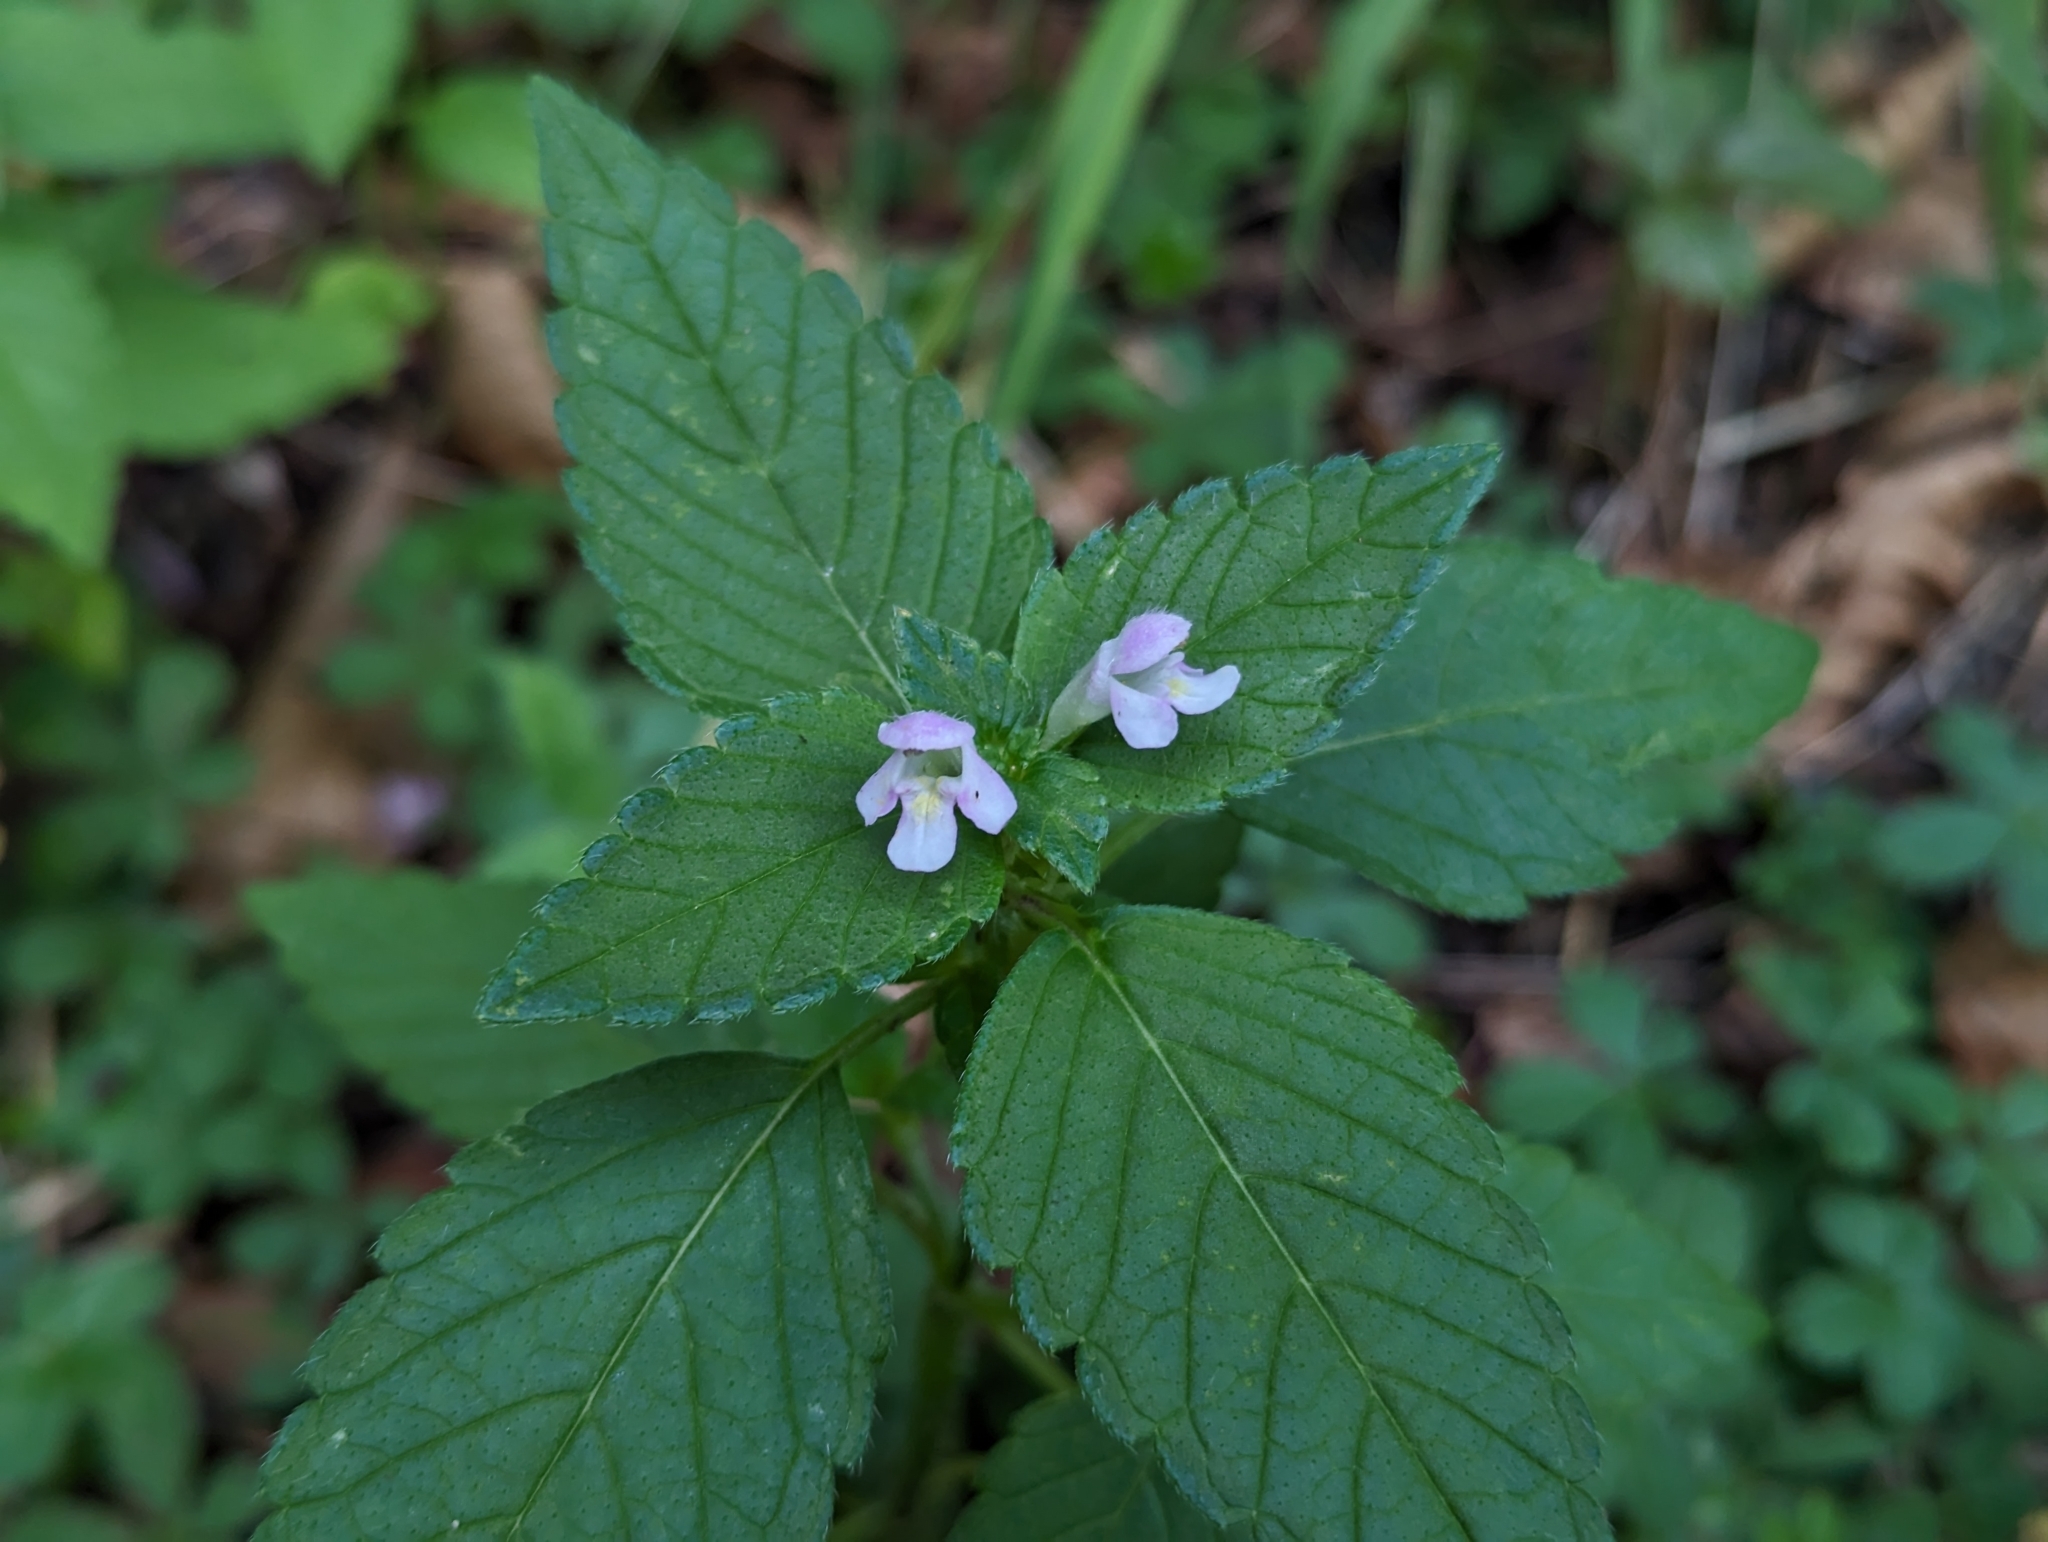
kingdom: Plantae
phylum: Tracheophyta
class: Magnoliopsida
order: Lamiales
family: Lamiaceae
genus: Galeopsis
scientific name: Galeopsis tetrahit
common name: Common hemp-nettle
